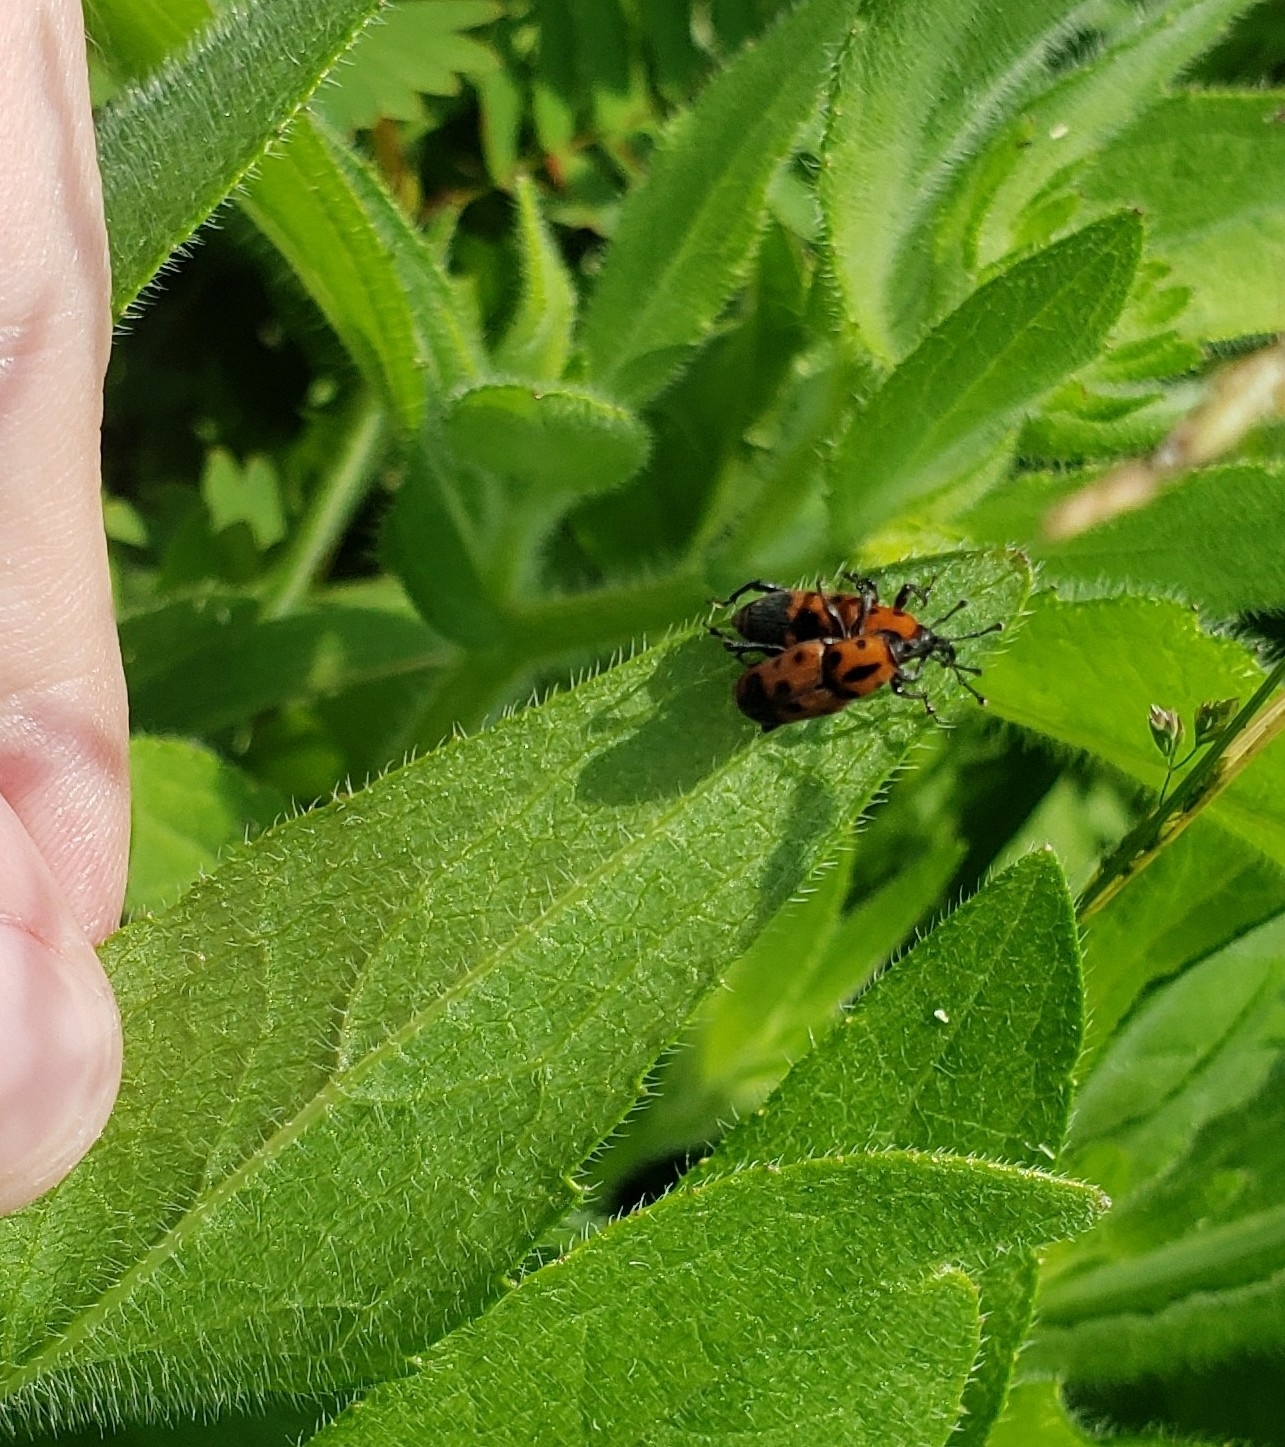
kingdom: Animalia
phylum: Arthropoda
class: Insecta
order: Coleoptera
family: Dryophthoridae
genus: Rhodobaenus
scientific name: Rhodobaenus quinquepunctatus
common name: Cocklebur weevil
